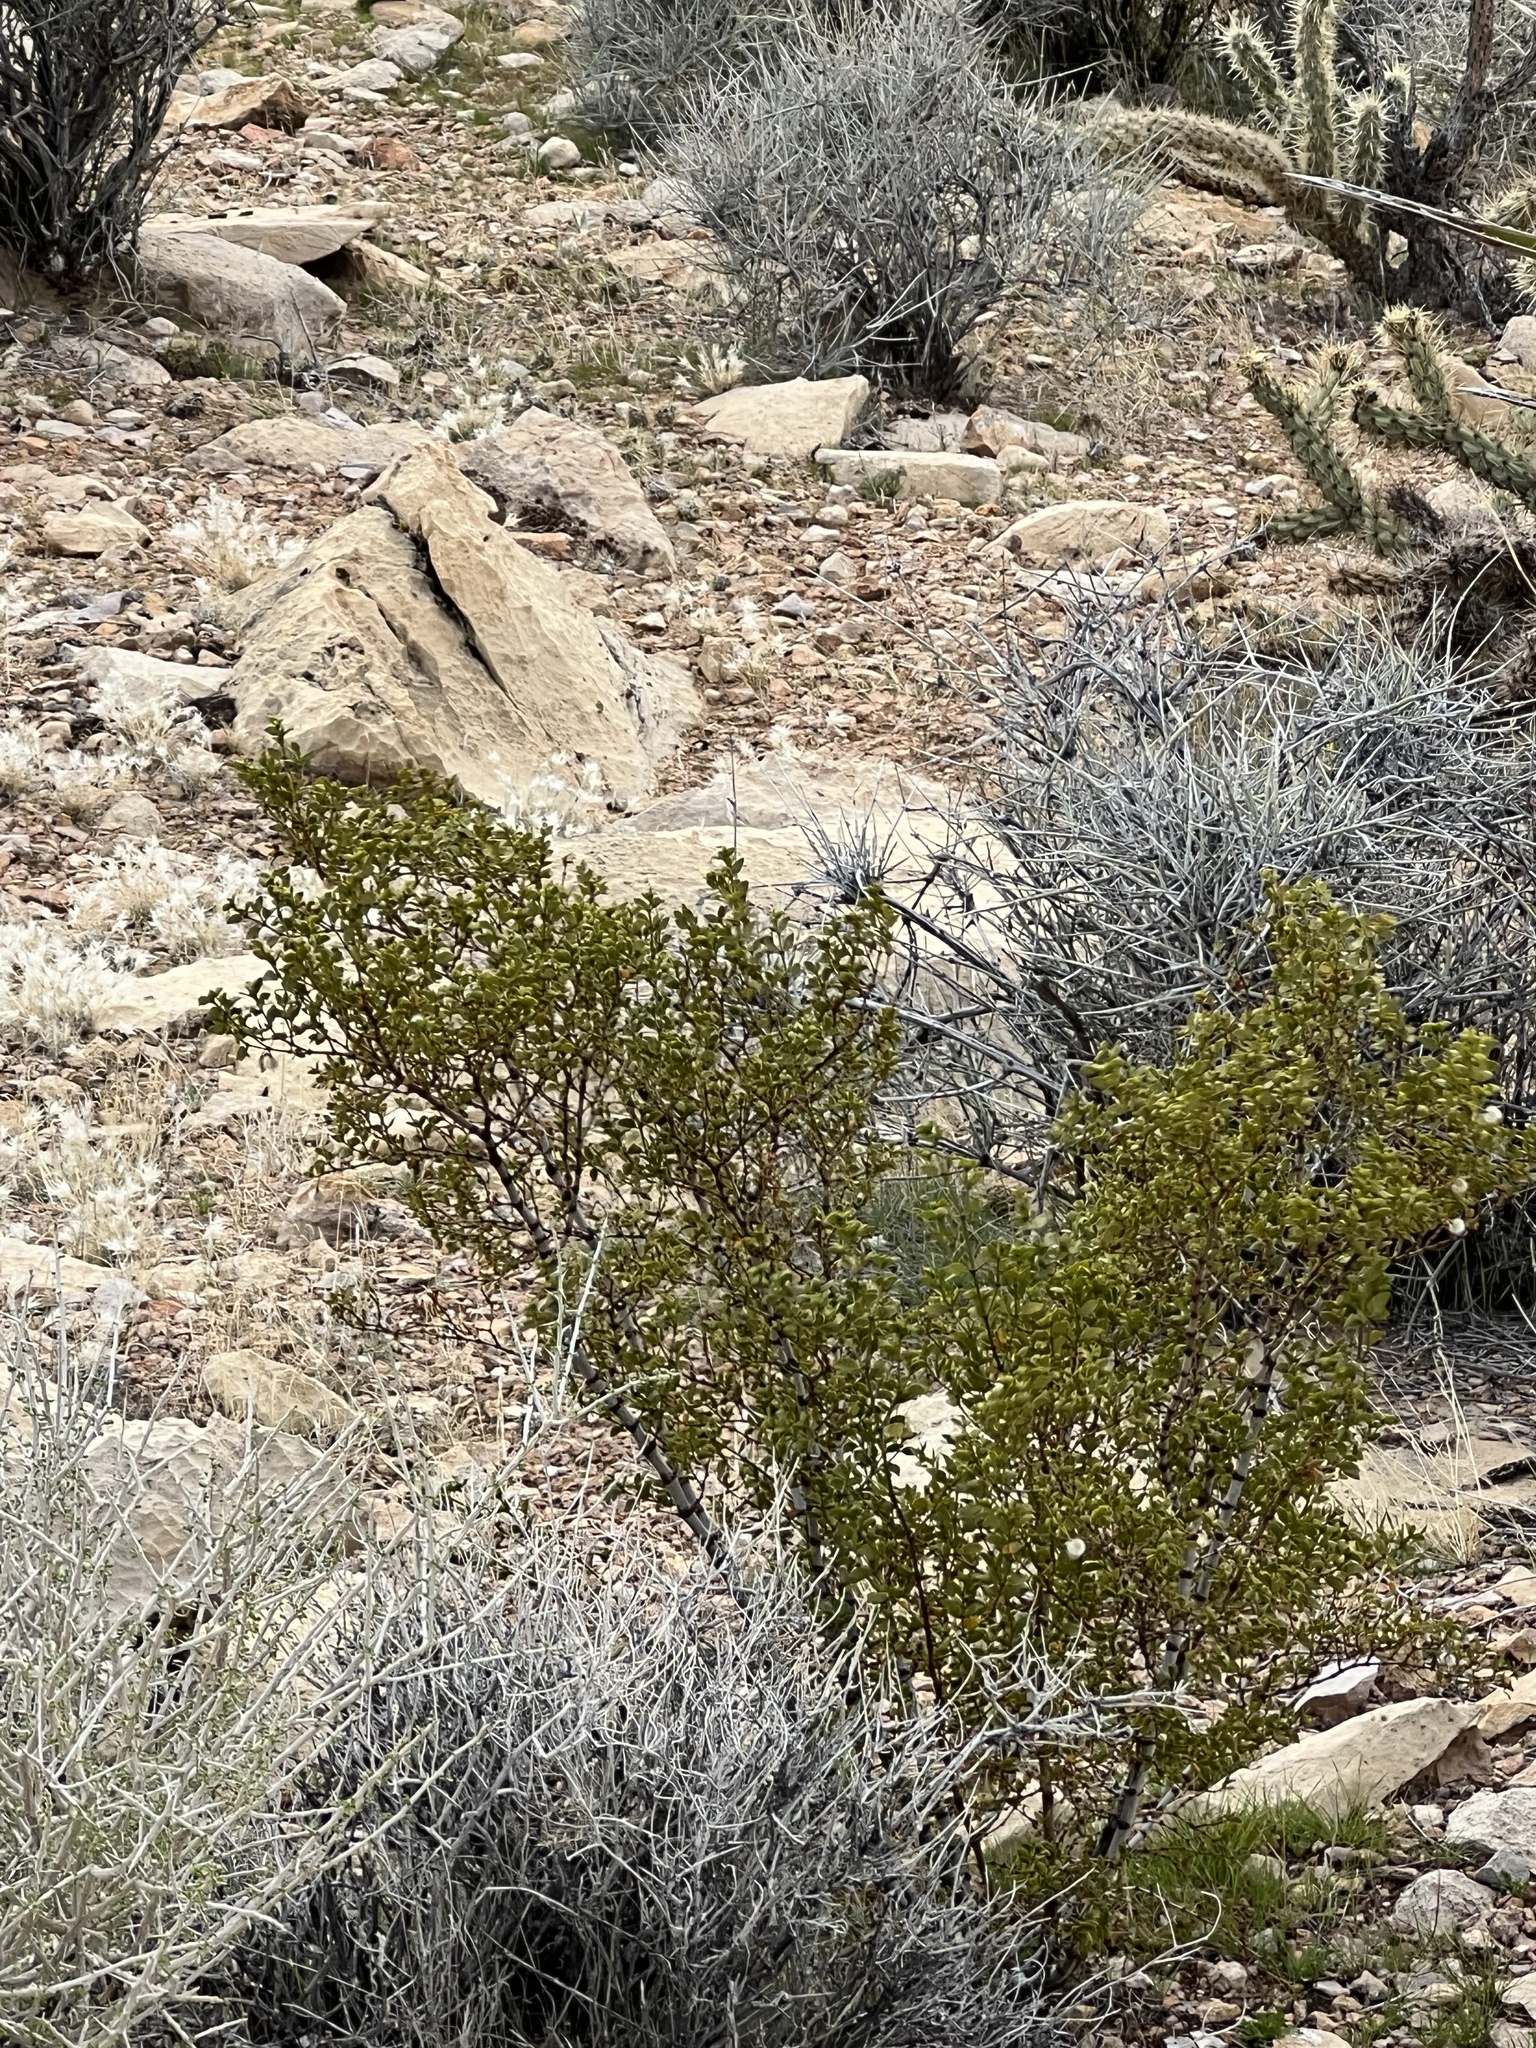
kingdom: Plantae
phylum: Tracheophyta
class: Magnoliopsida
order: Zygophyllales
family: Zygophyllaceae
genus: Larrea
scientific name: Larrea tridentata
